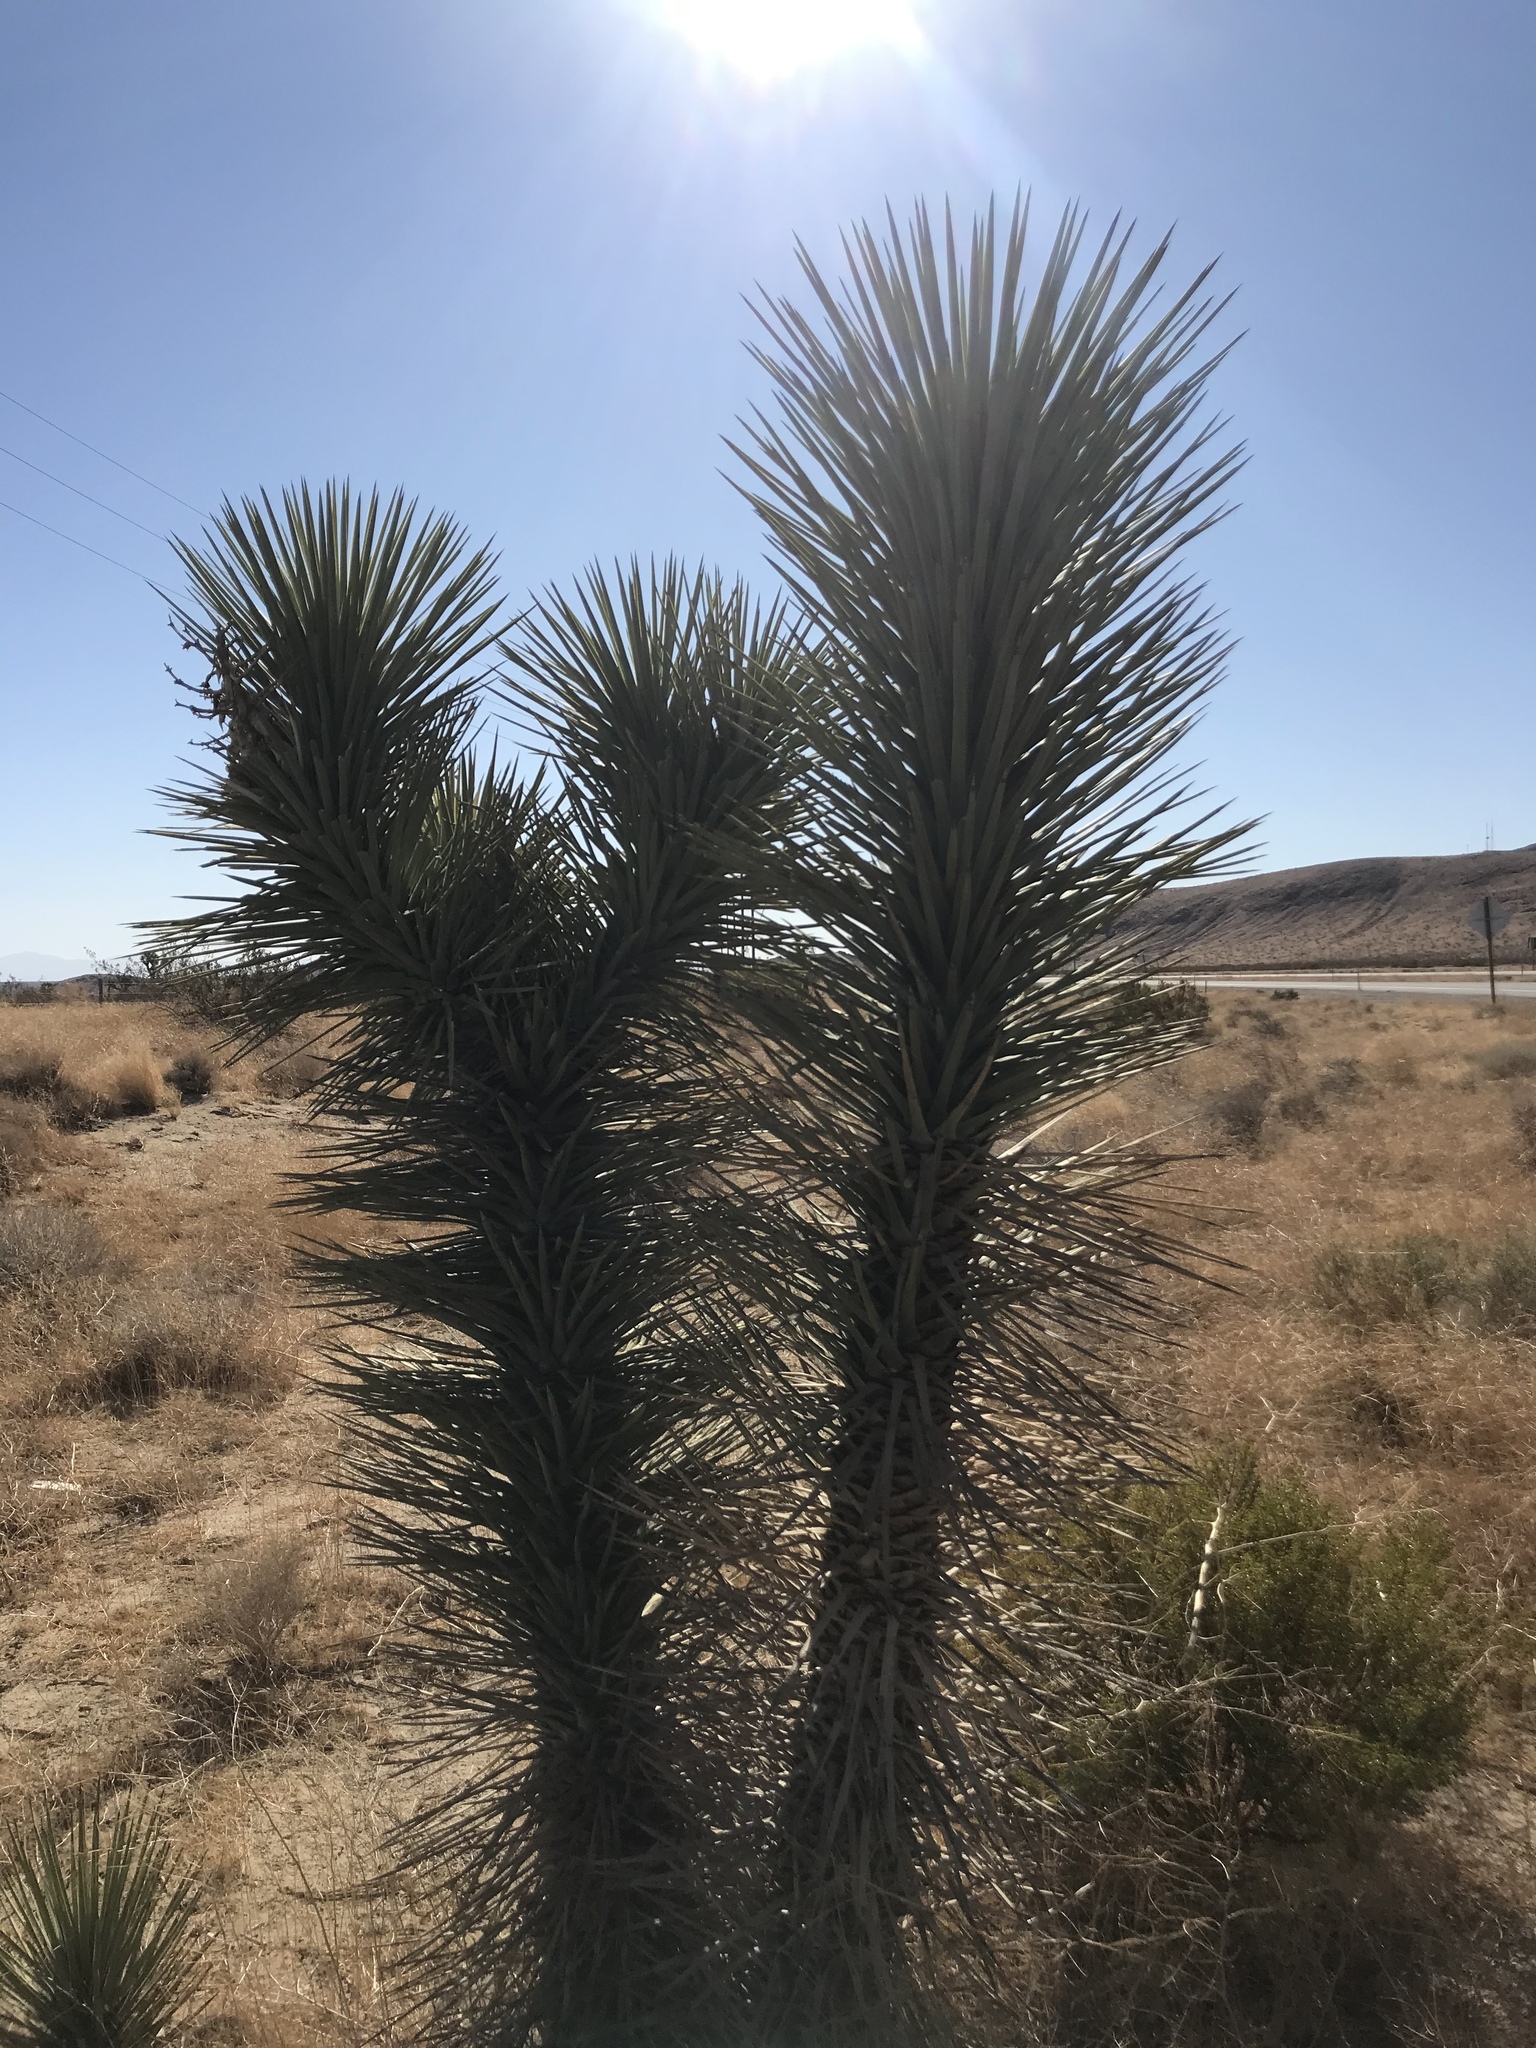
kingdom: Plantae
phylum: Tracheophyta
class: Liliopsida
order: Asparagales
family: Asparagaceae
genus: Yucca
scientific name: Yucca brevifolia
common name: Joshua tree
